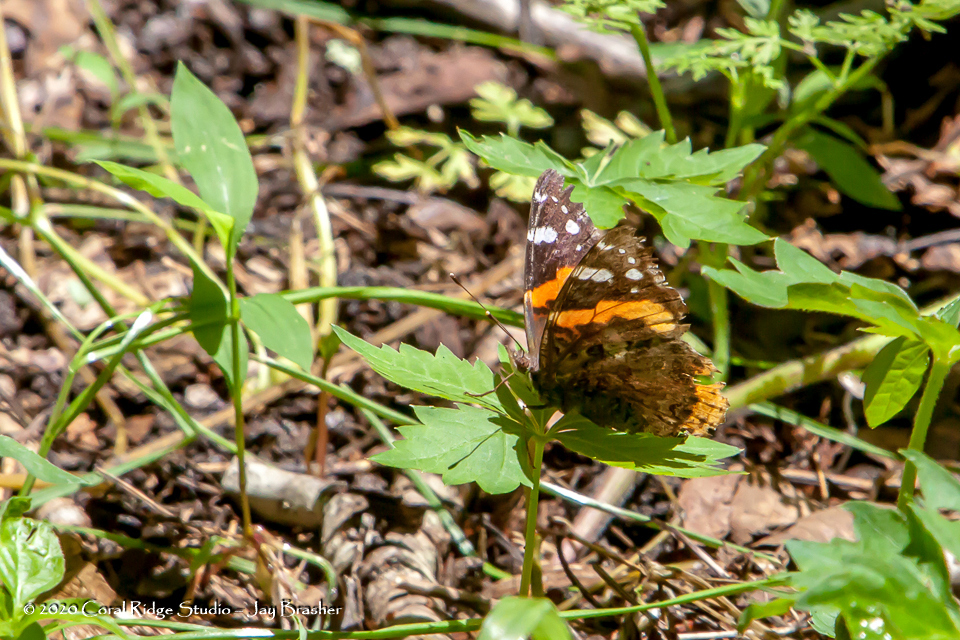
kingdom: Animalia
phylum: Arthropoda
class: Insecta
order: Lepidoptera
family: Nymphalidae
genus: Vanessa
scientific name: Vanessa atalanta
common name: Red admiral
